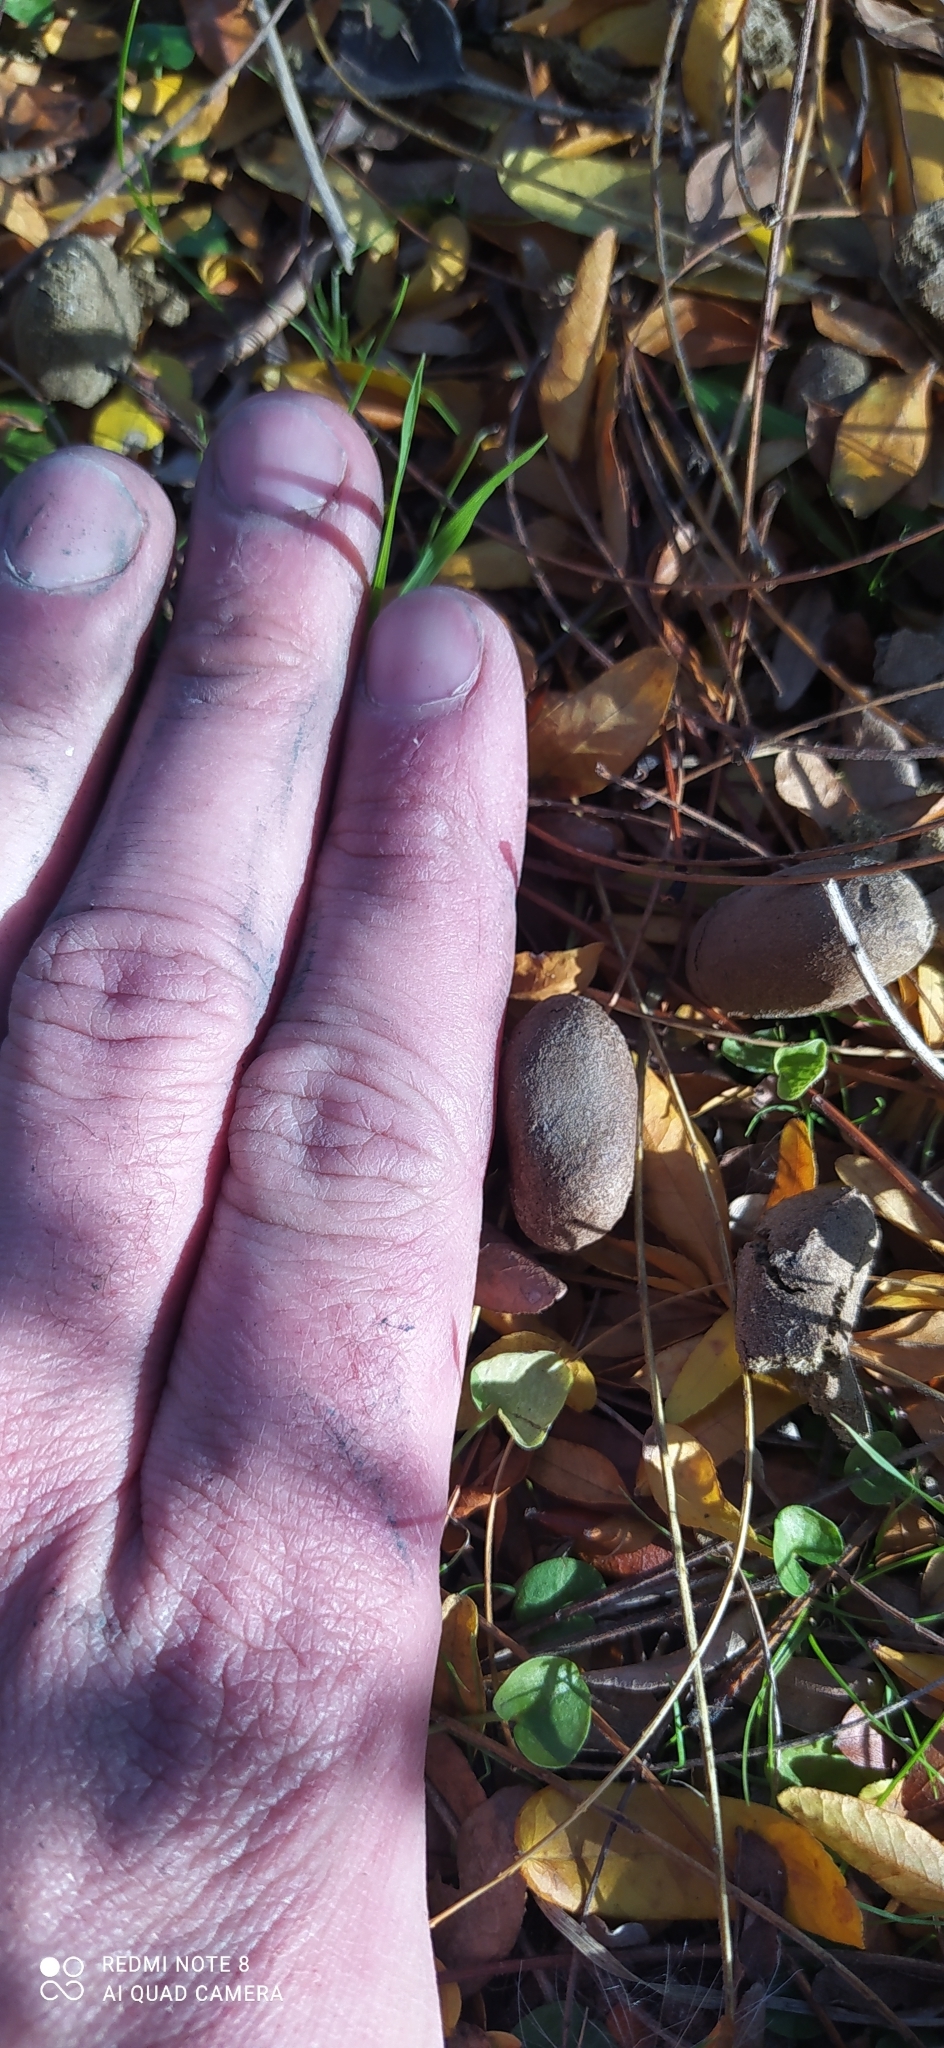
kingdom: Animalia
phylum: Chordata
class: Mammalia
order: Rodentia
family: Caviidae
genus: Hydrochoerus
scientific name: Hydrochoerus hydrochaeris
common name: Capybara
